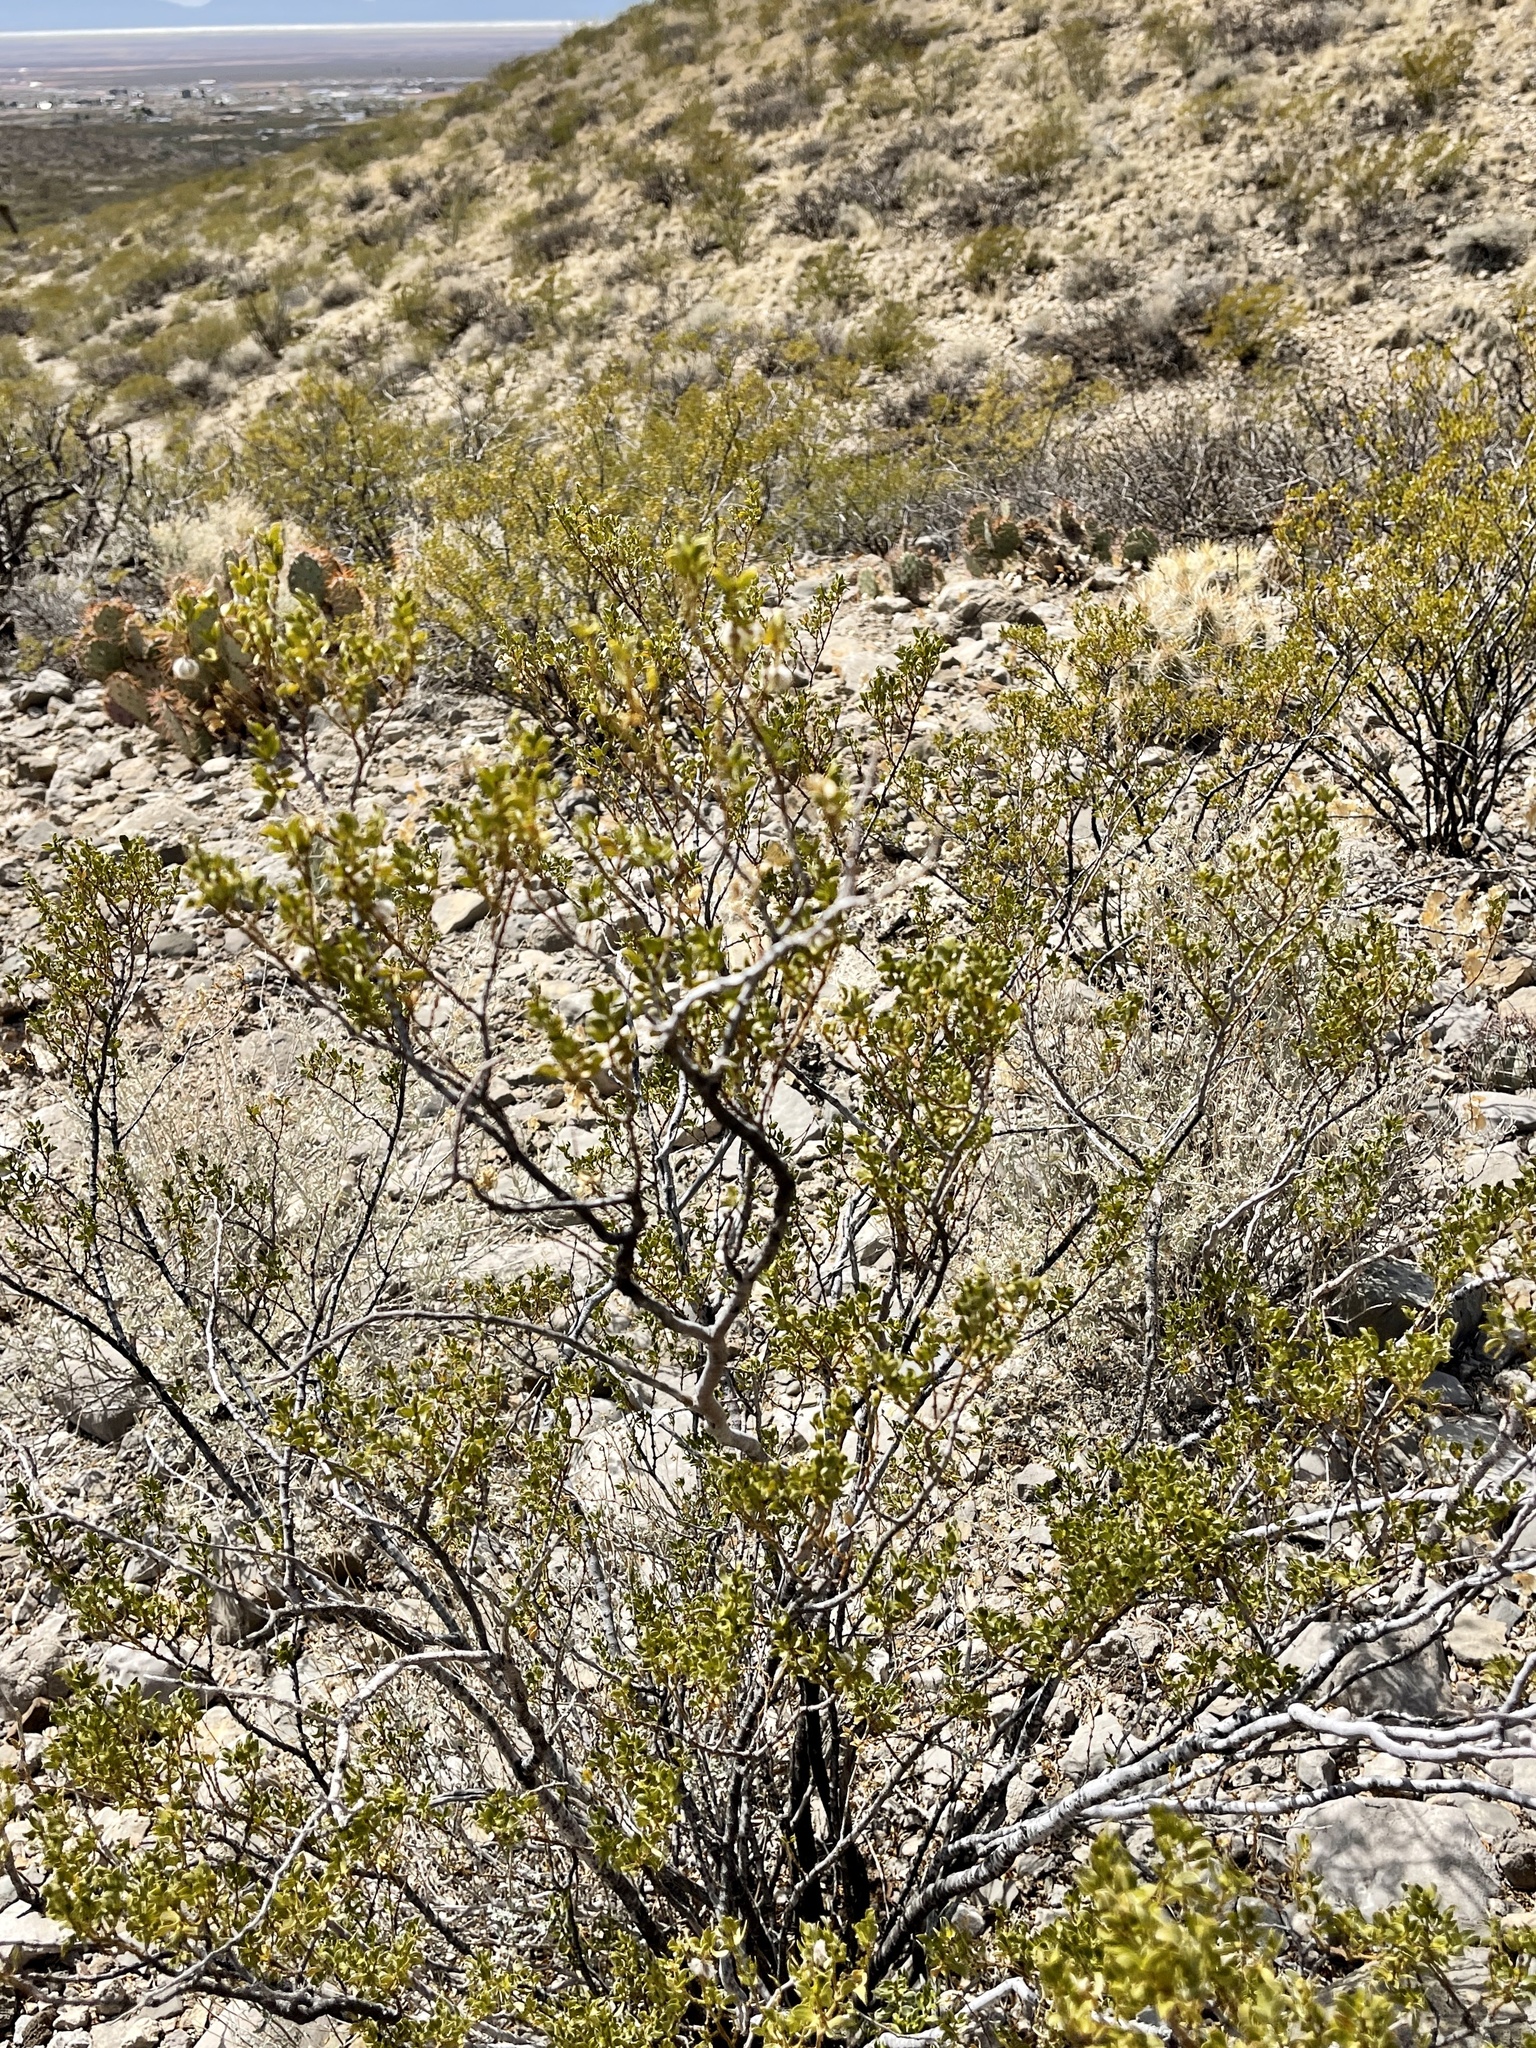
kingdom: Plantae
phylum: Tracheophyta
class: Magnoliopsida
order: Zygophyllales
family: Zygophyllaceae
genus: Larrea
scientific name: Larrea tridentata
